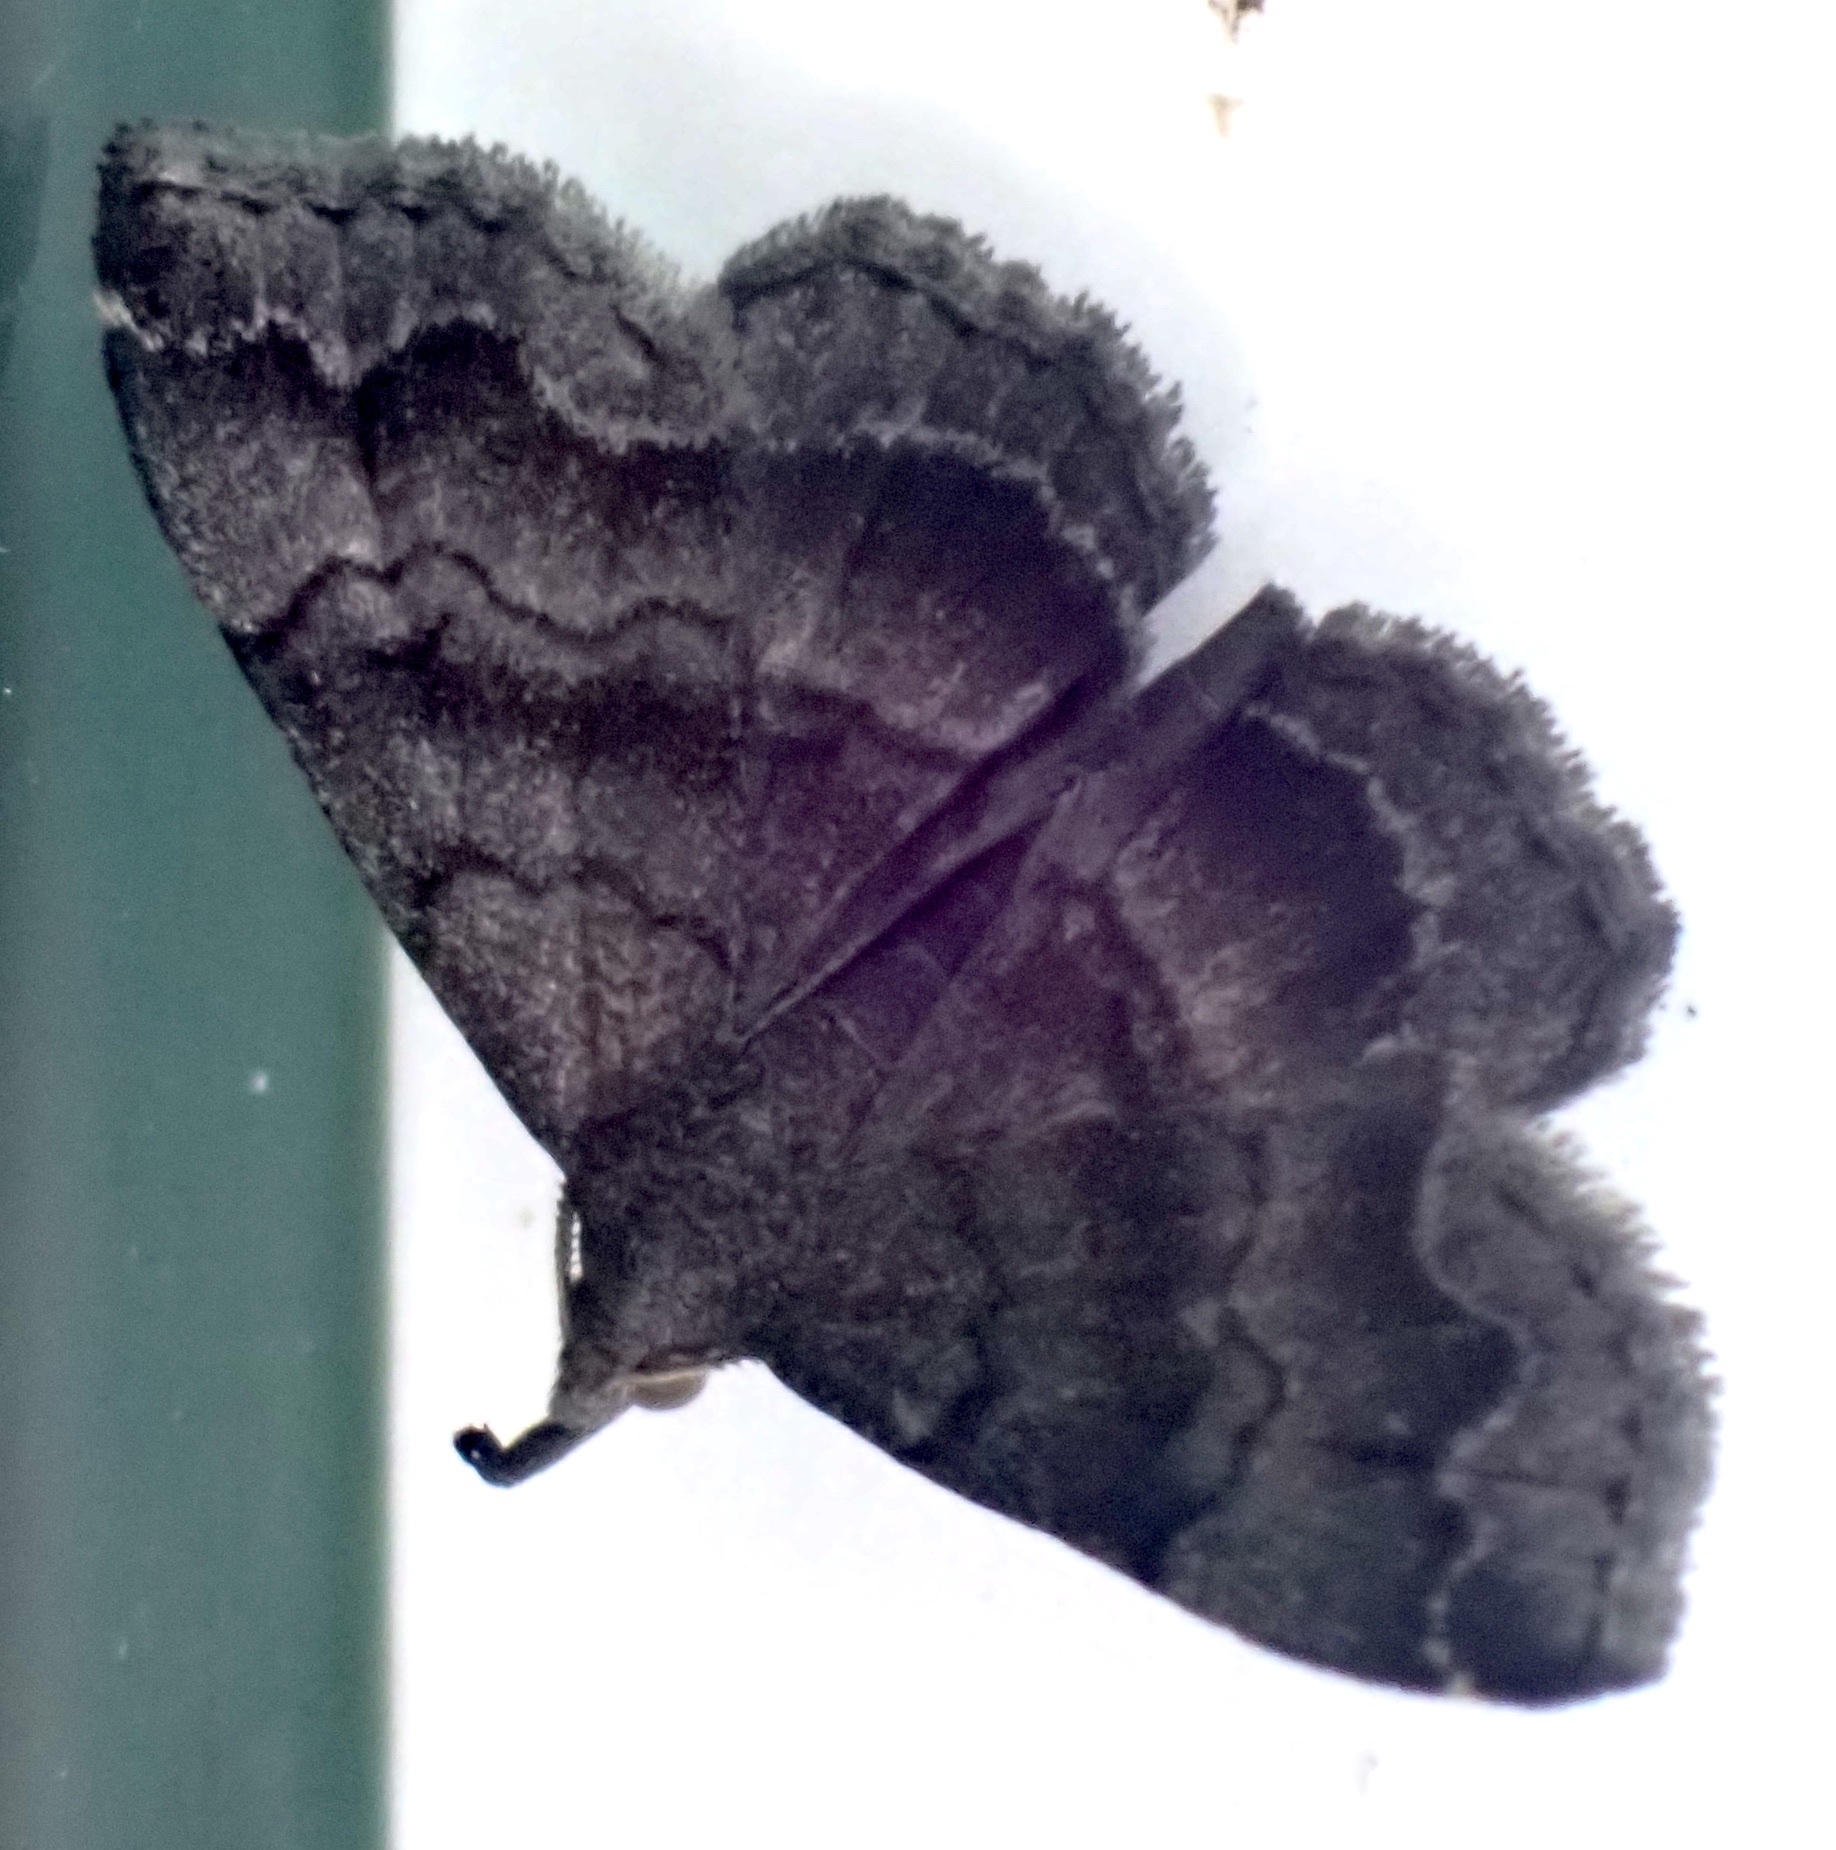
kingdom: Animalia
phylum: Arthropoda
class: Insecta
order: Lepidoptera
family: Erebidae
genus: Phalaenostola
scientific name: Phalaenostola larentioides
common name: Black-banded owlet
